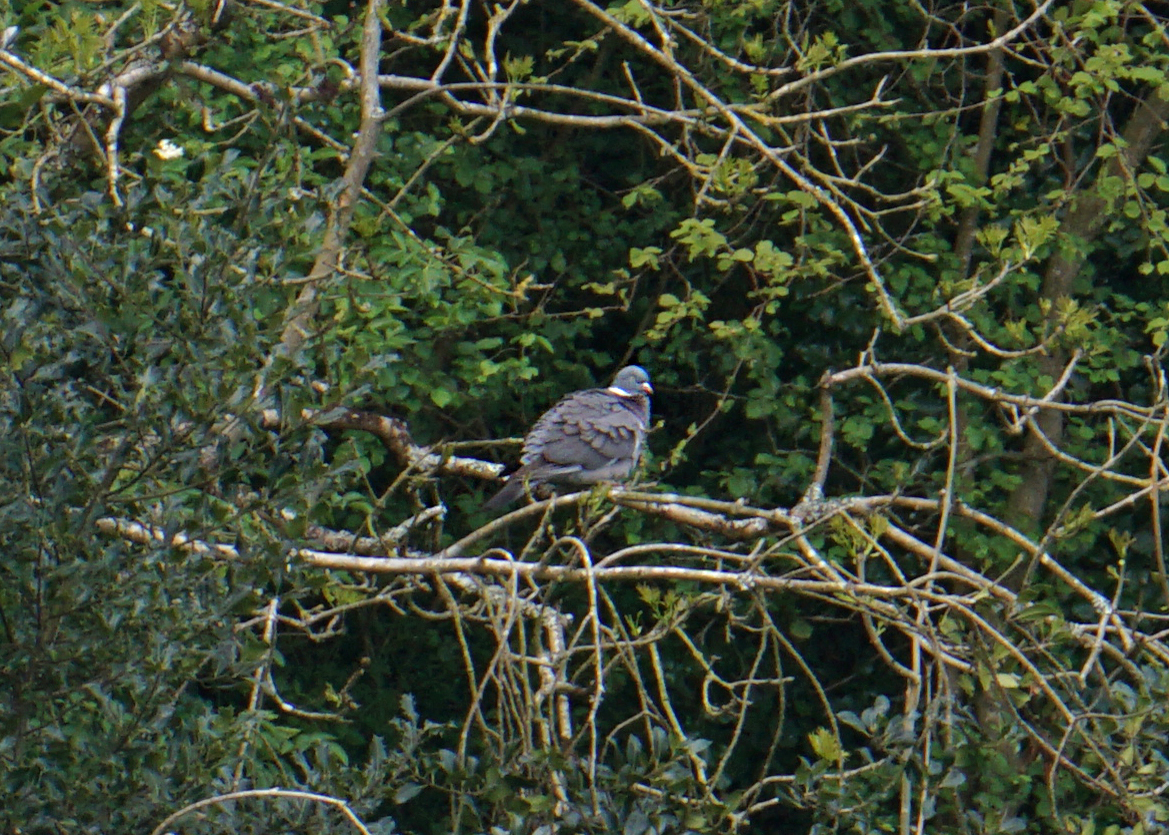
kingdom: Animalia
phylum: Chordata
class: Aves
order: Columbiformes
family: Columbidae
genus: Columba
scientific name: Columba palumbus
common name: Common wood pigeon
